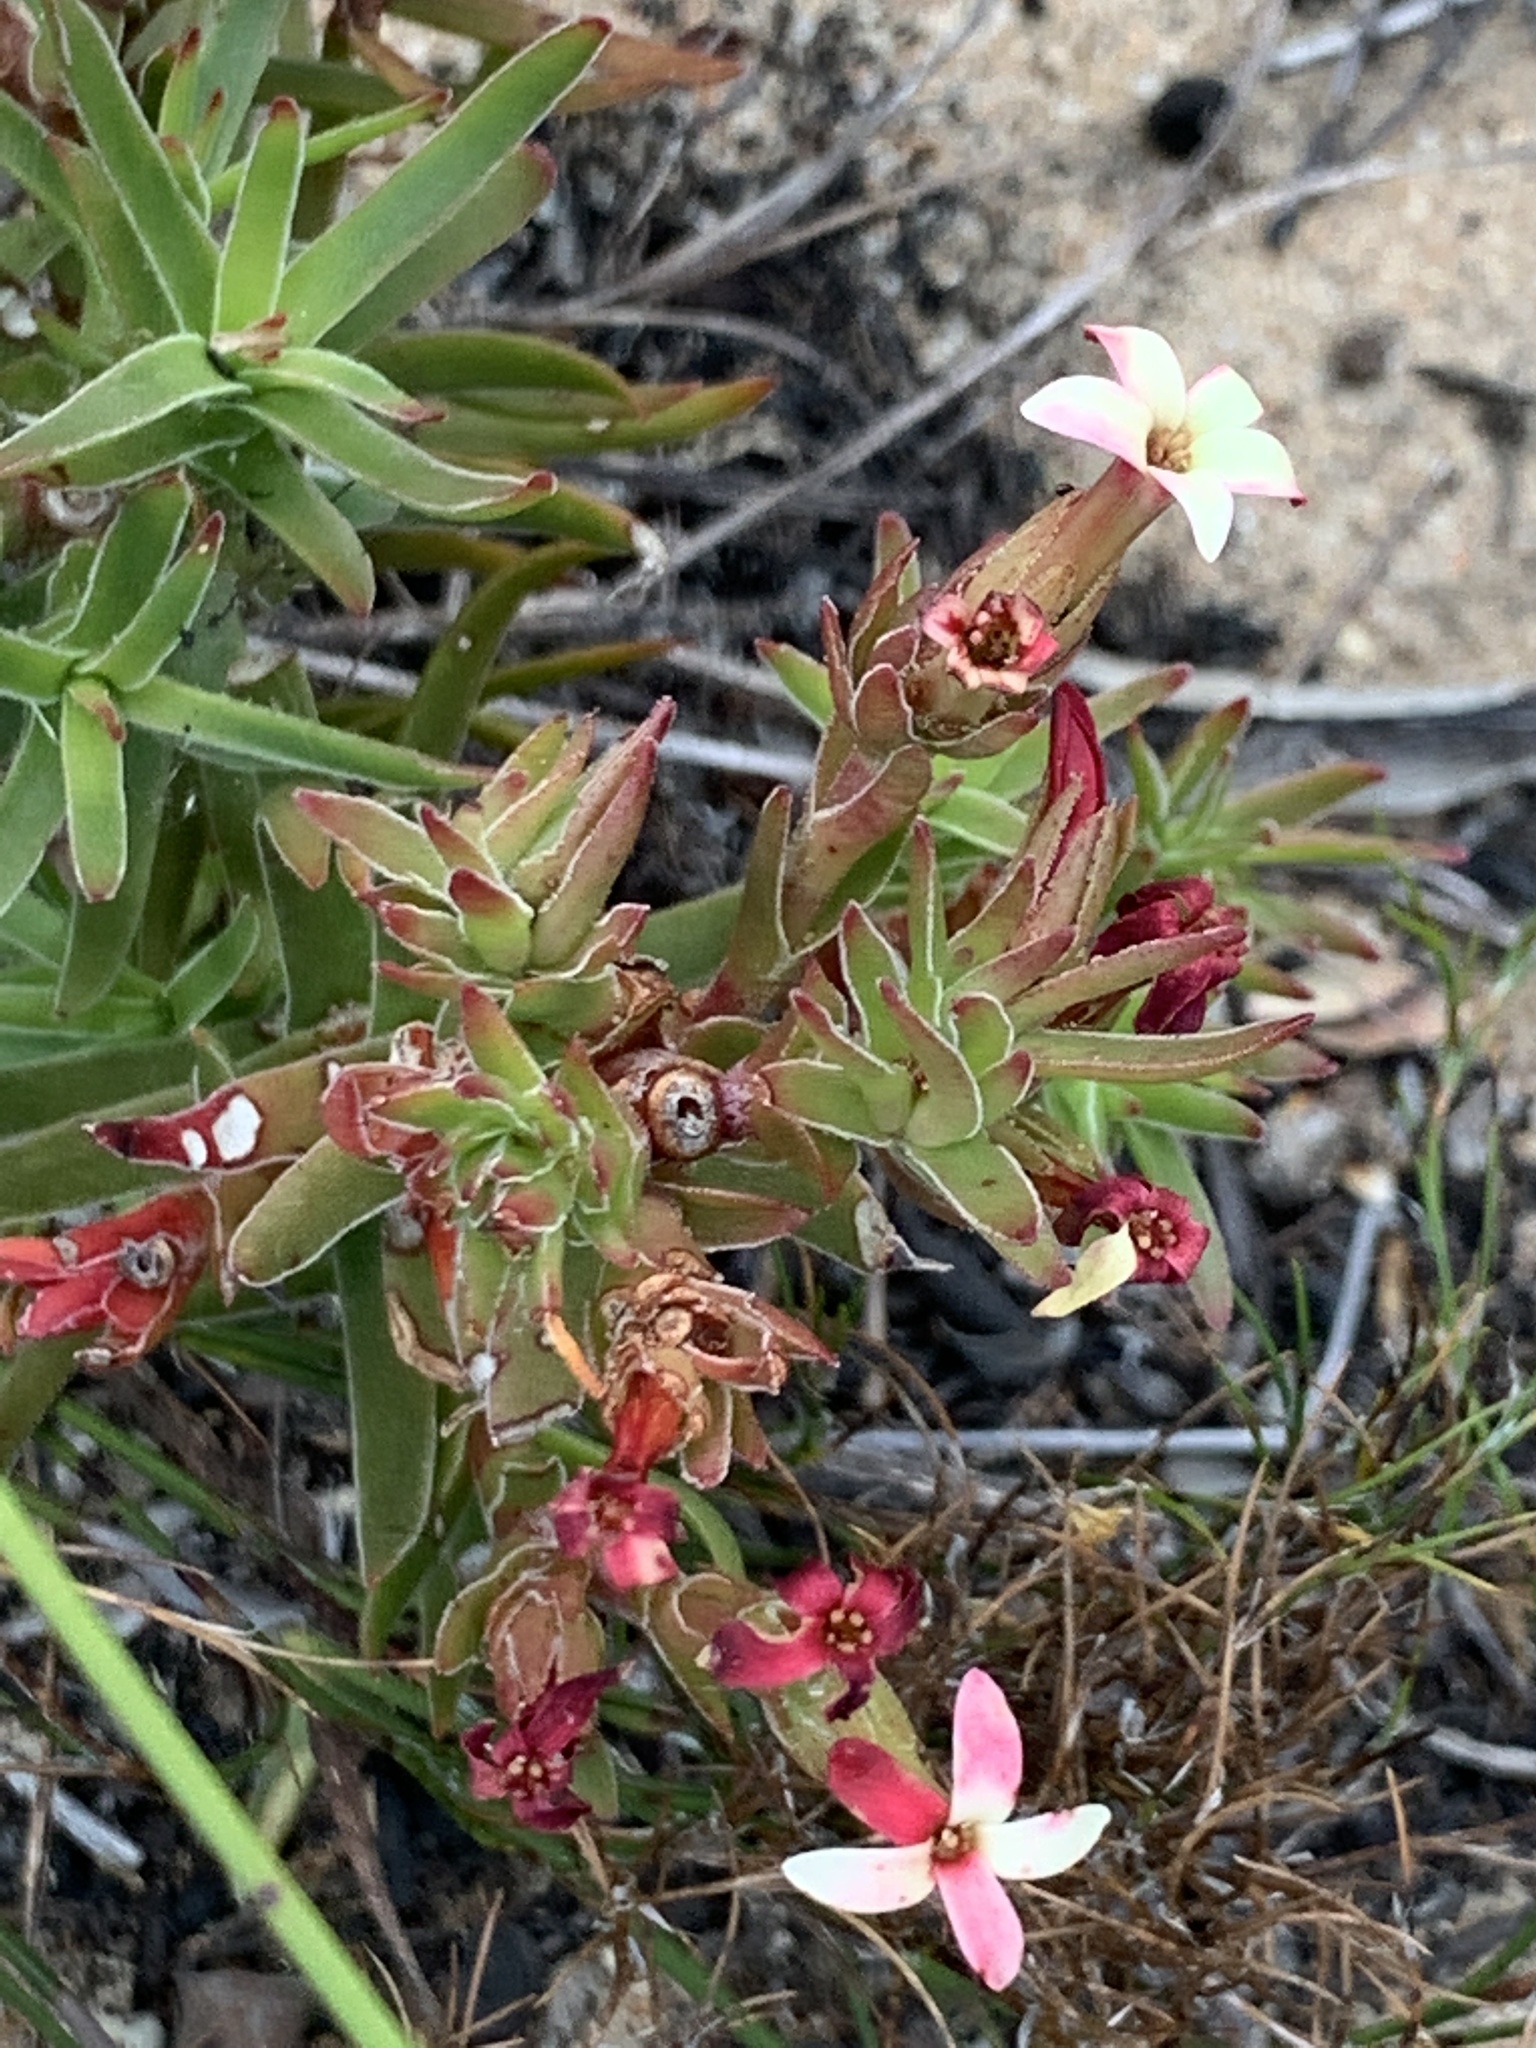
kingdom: Plantae
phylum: Tracheophyta
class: Magnoliopsida
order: Saxifragales
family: Crassulaceae
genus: Crassula
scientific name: Crassula fascicularis
